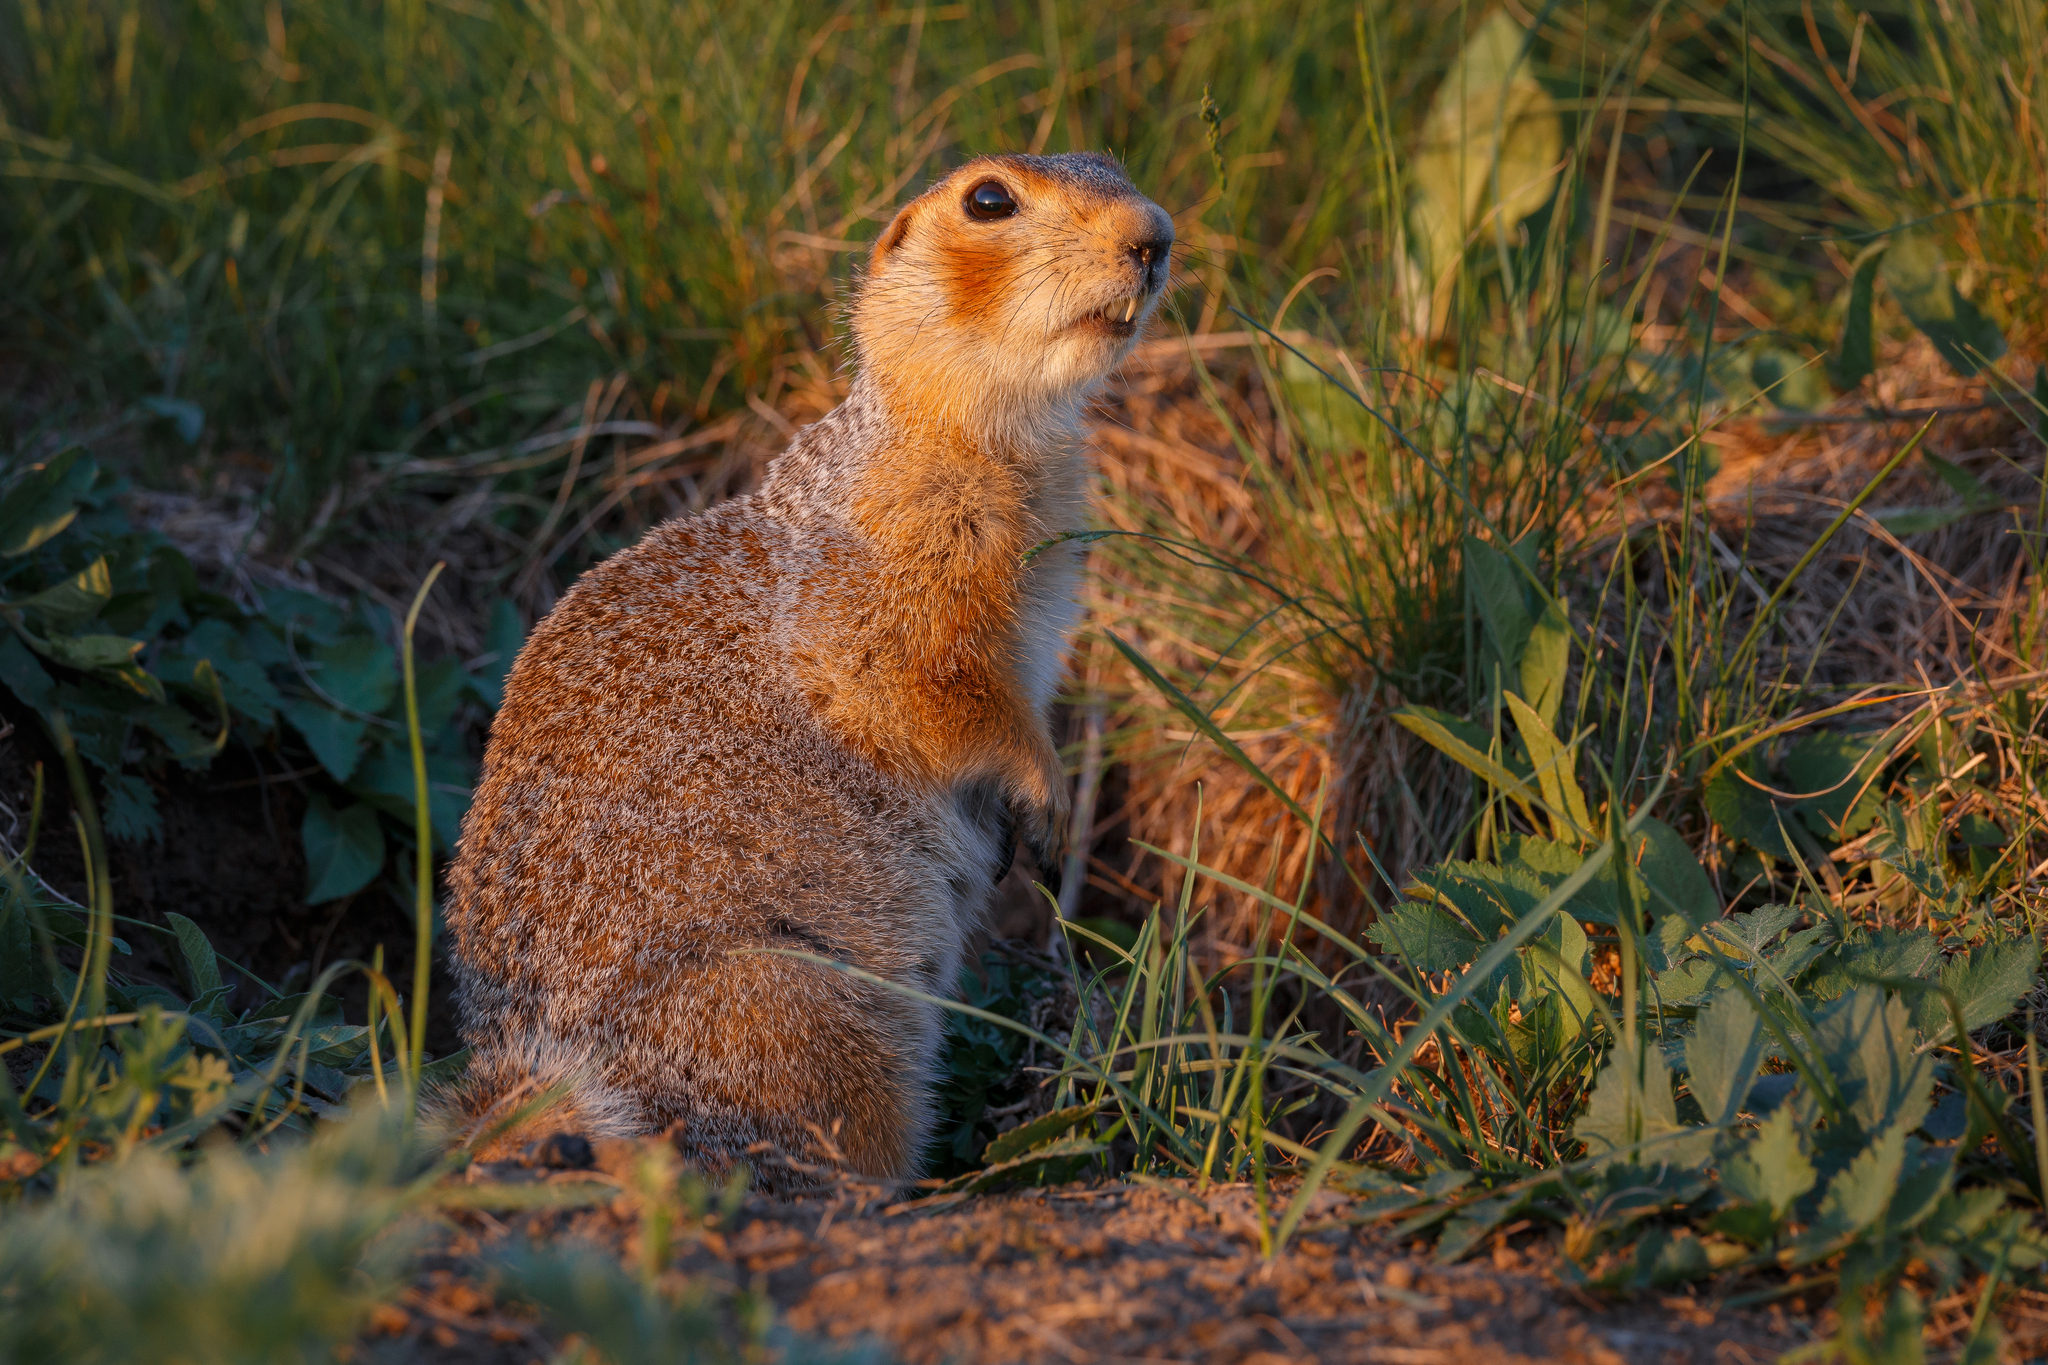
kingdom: Animalia
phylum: Chordata
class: Mammalia
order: Rodentia
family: Sciuridae
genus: Spermophilus
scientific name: Spermophilus major
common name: Russet ground squirrel
